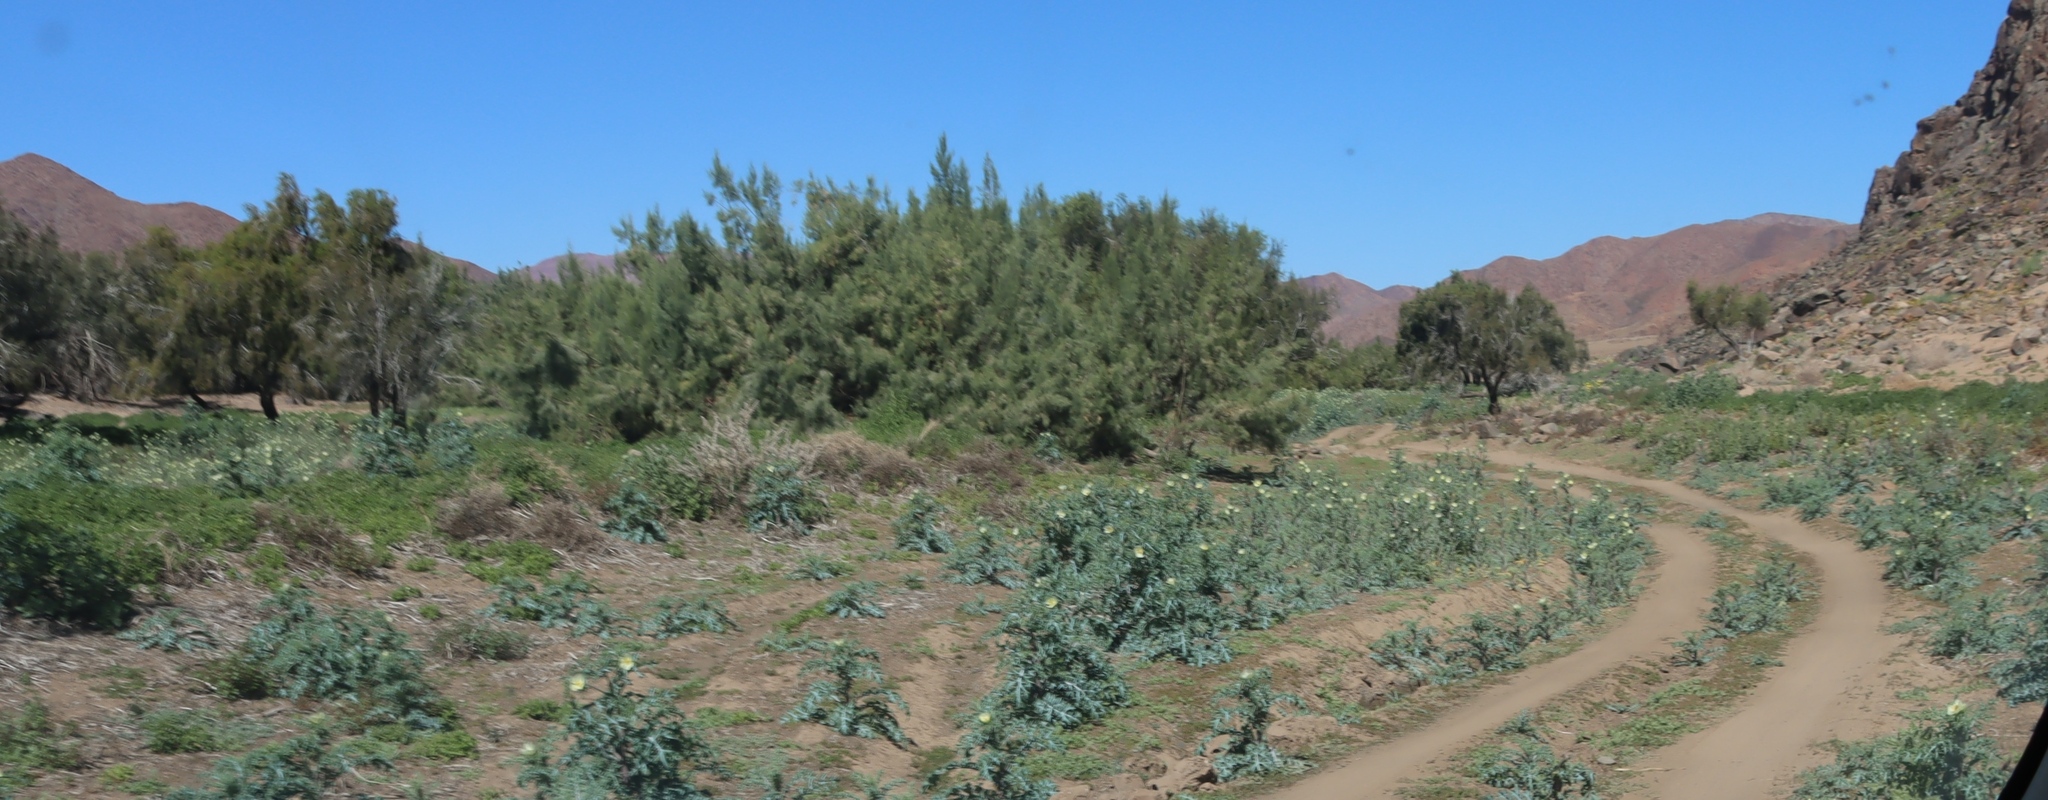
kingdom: Plantae
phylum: Tracheophyta
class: Magnoliopsida
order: Ranunculales
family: Papaveraceae
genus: Argemone
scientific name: Argemone ochroleuca
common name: White-flower mexican-poppy
